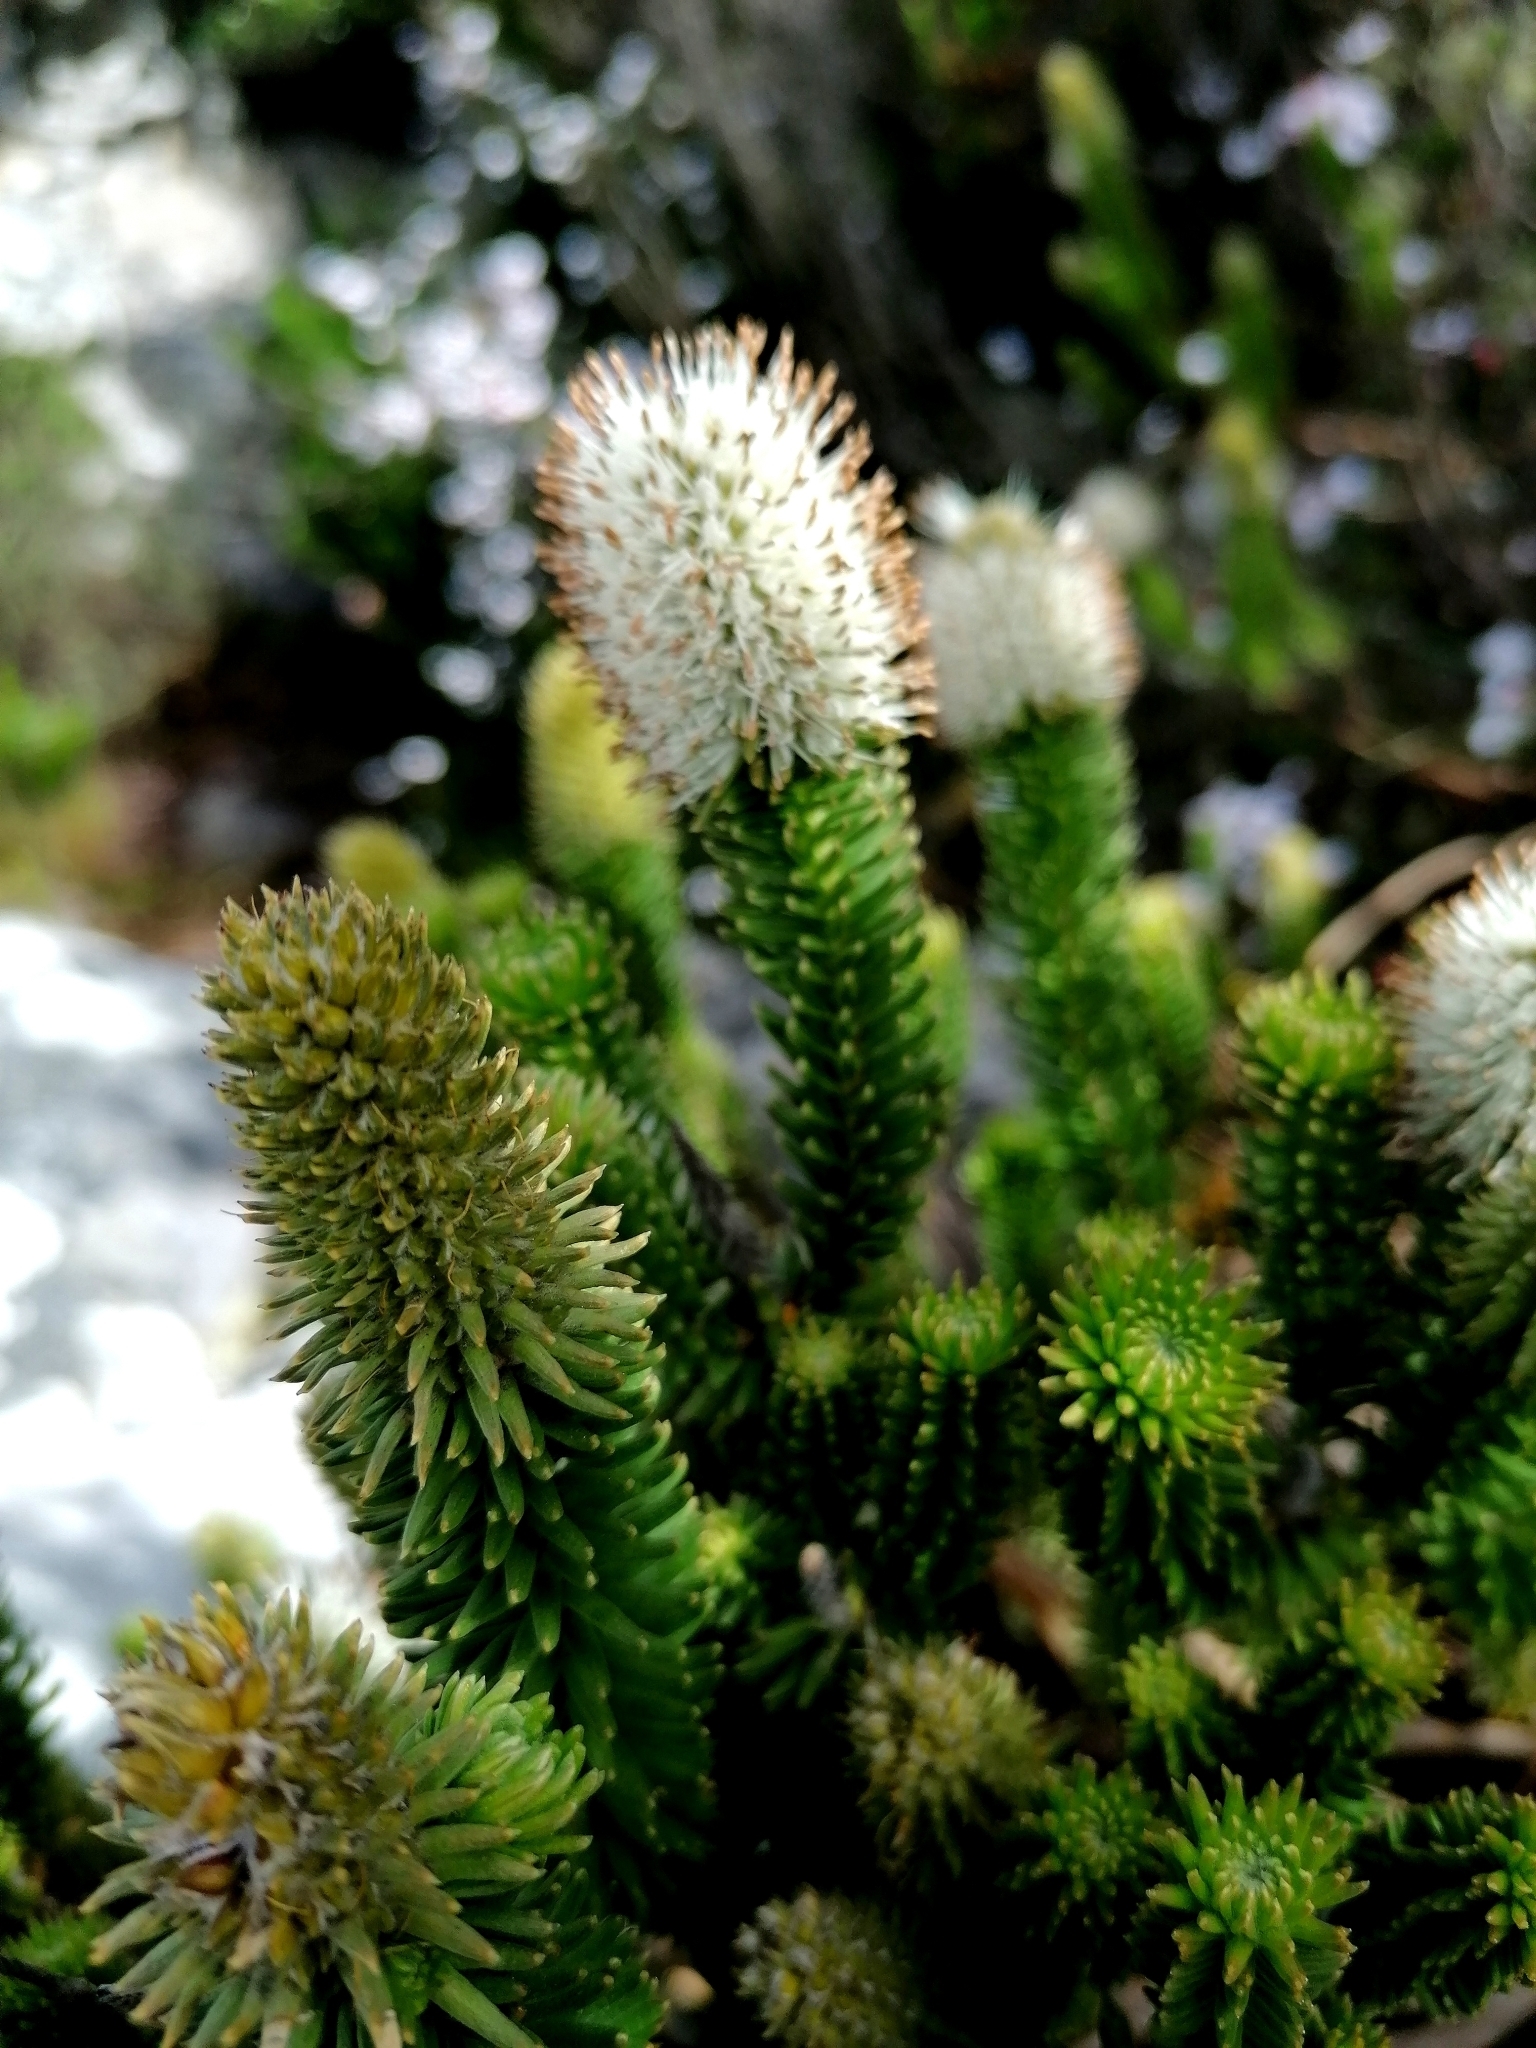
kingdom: Plantae
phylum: Tracheophyta
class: Magnoliopsida
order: Lamiales
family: Stilbaceae
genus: Stilbe
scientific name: Stilbe vestita
